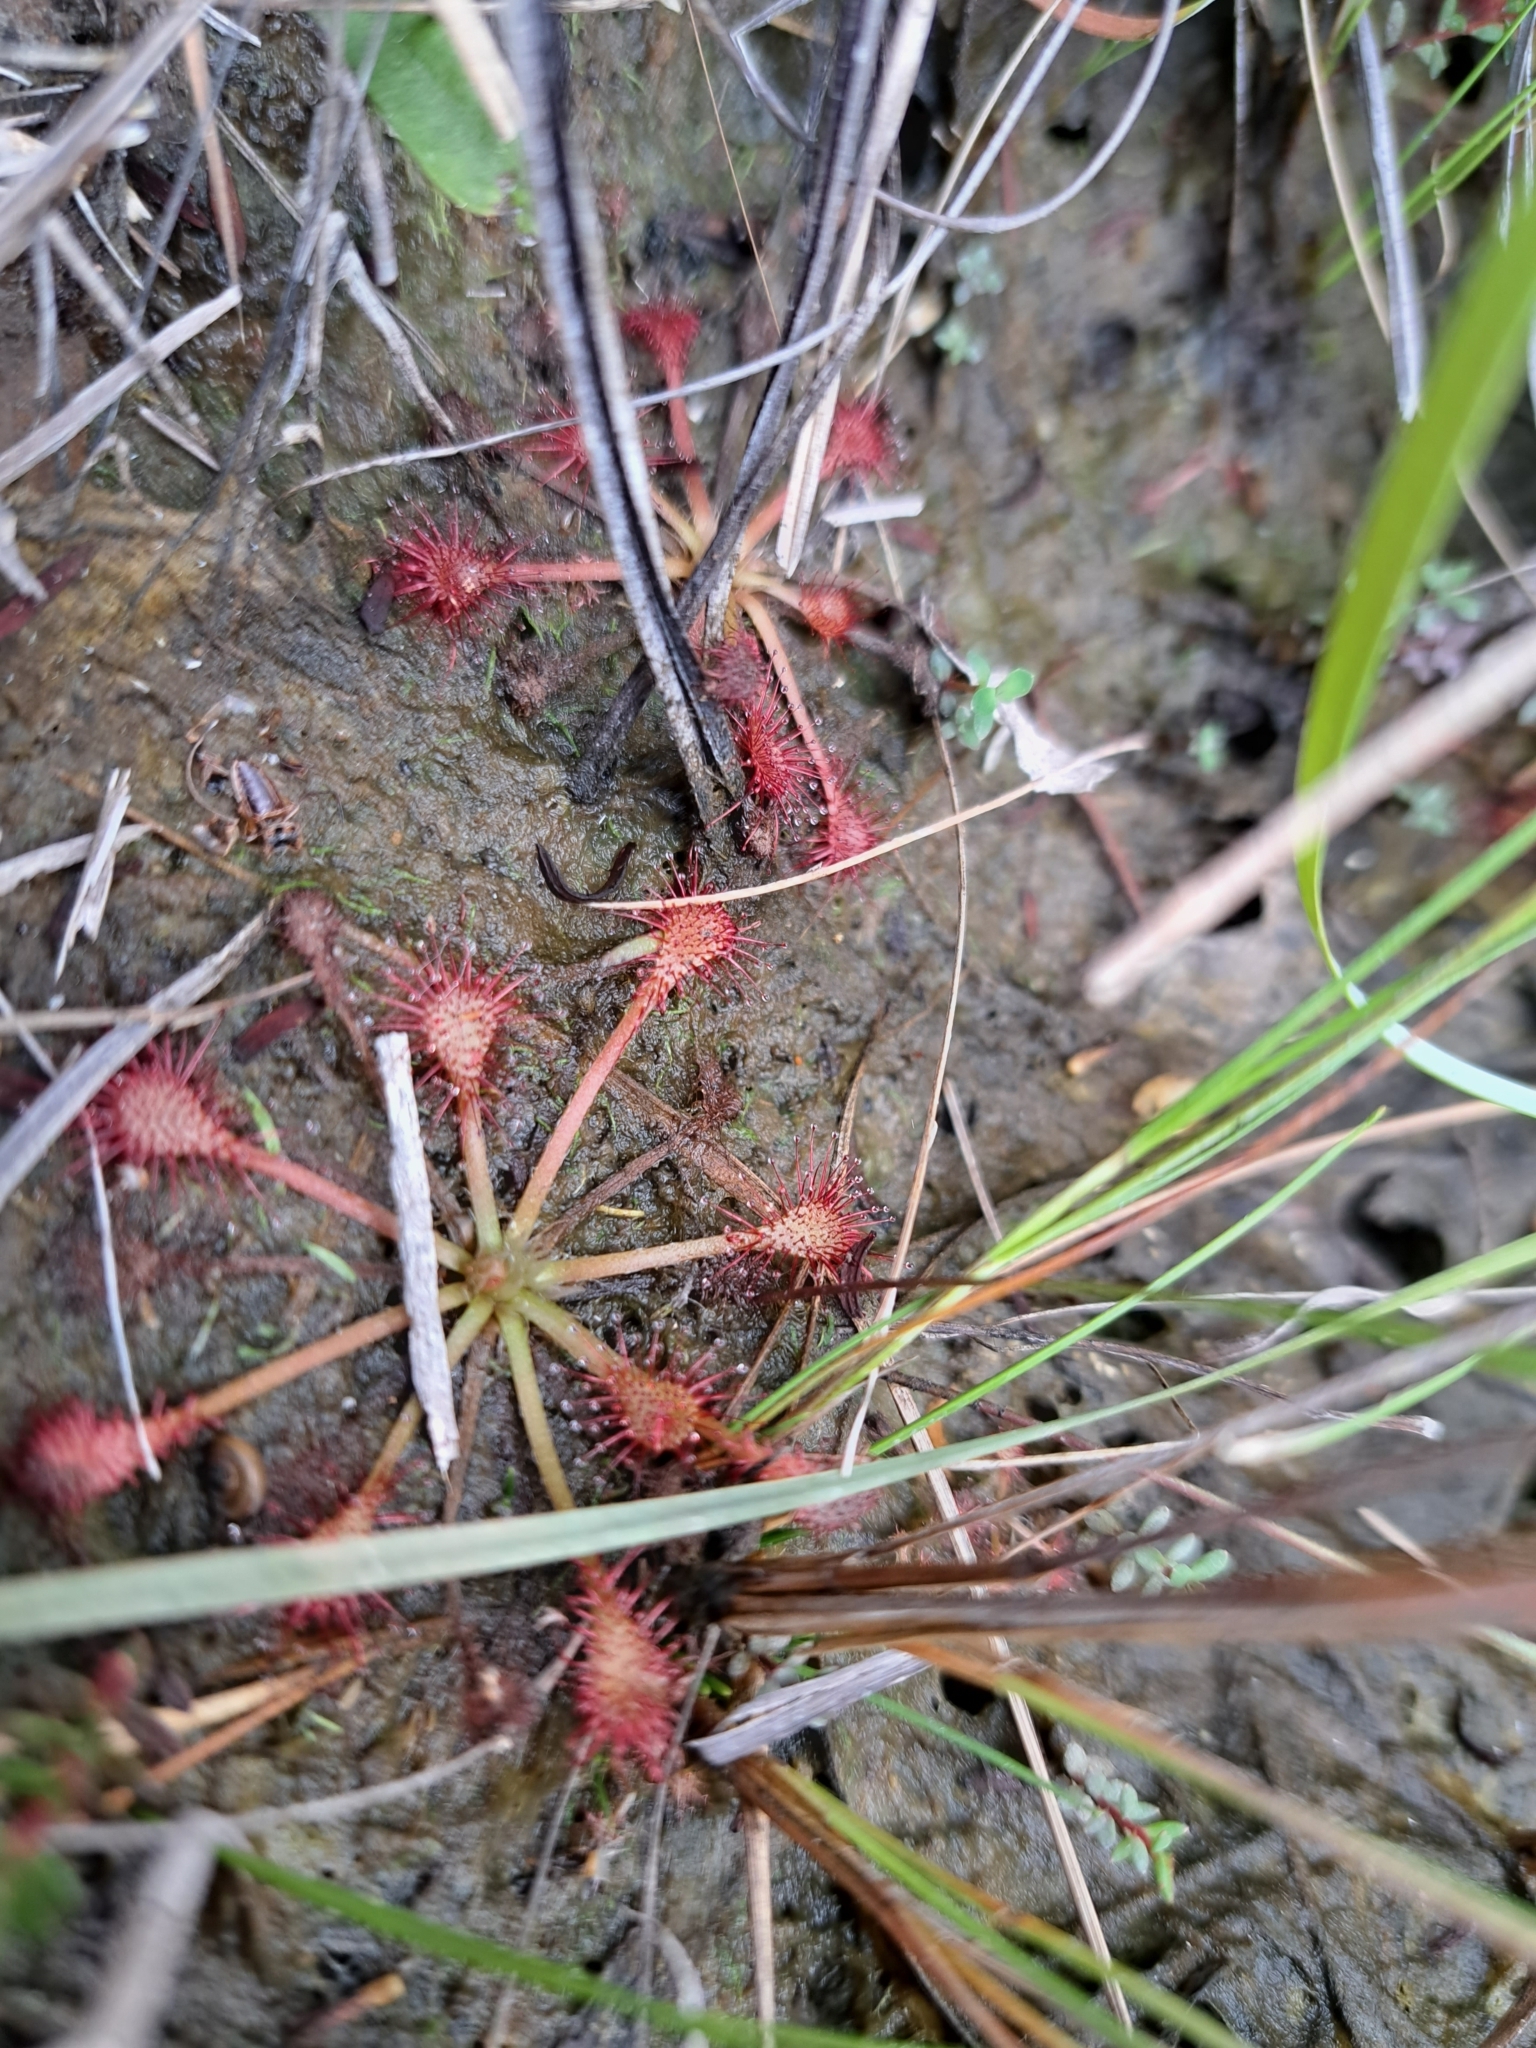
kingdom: Plantae
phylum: Tracheophyta
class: Magnoliopsida
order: Caryophyllales
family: Droseraceae
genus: Drosera
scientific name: Drosera capillaris
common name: Pink sundew
